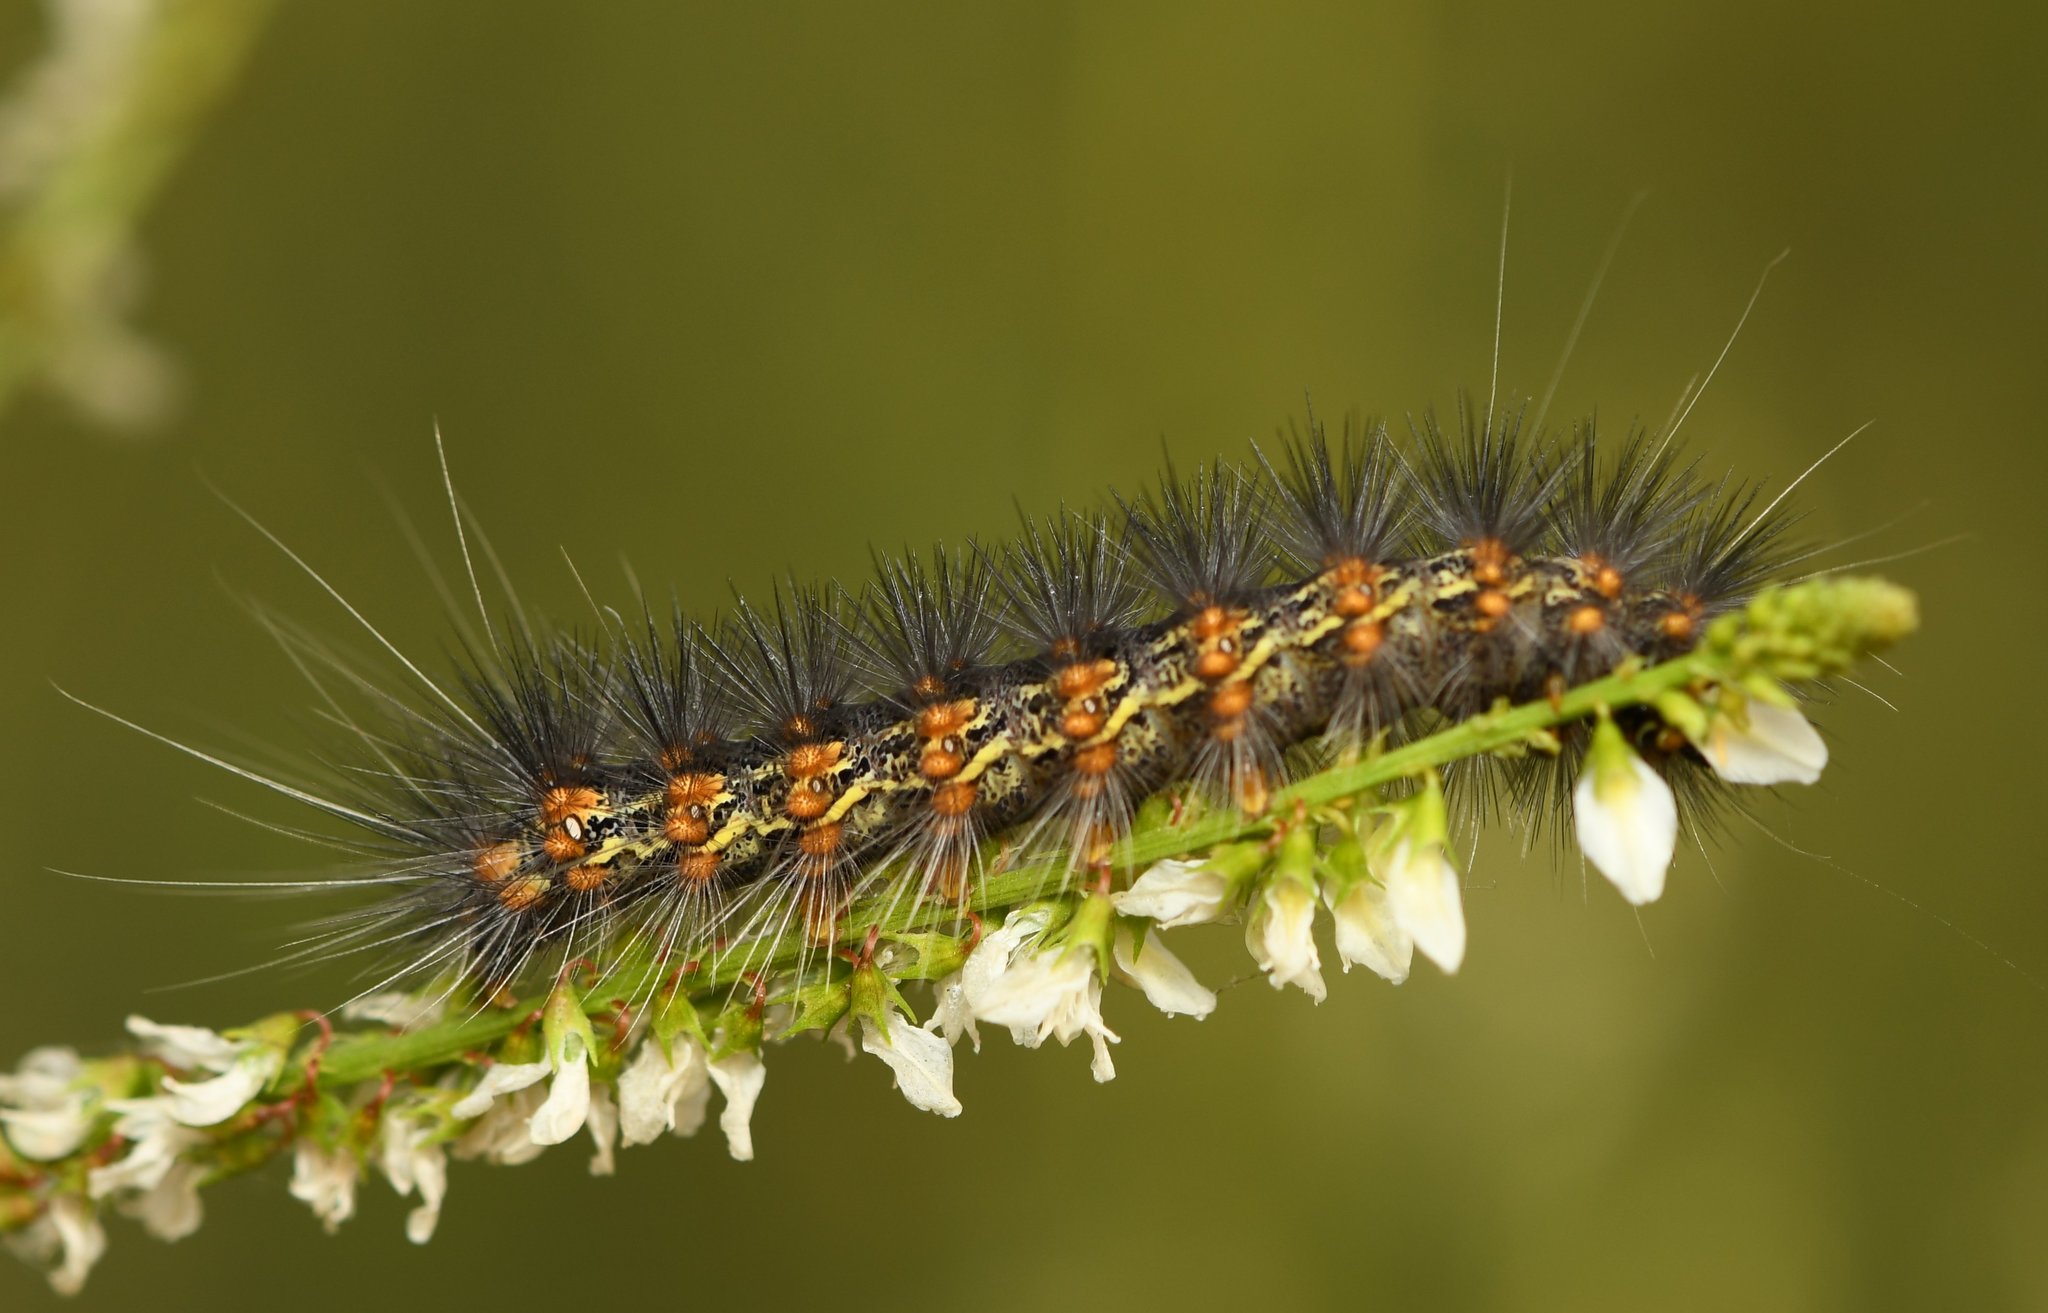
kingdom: Animalia
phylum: Arthropoda
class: Insecta
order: Lepidoptera
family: Erebidae
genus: Estigmene
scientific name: Estigmene acrea
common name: Salt marsh moth
